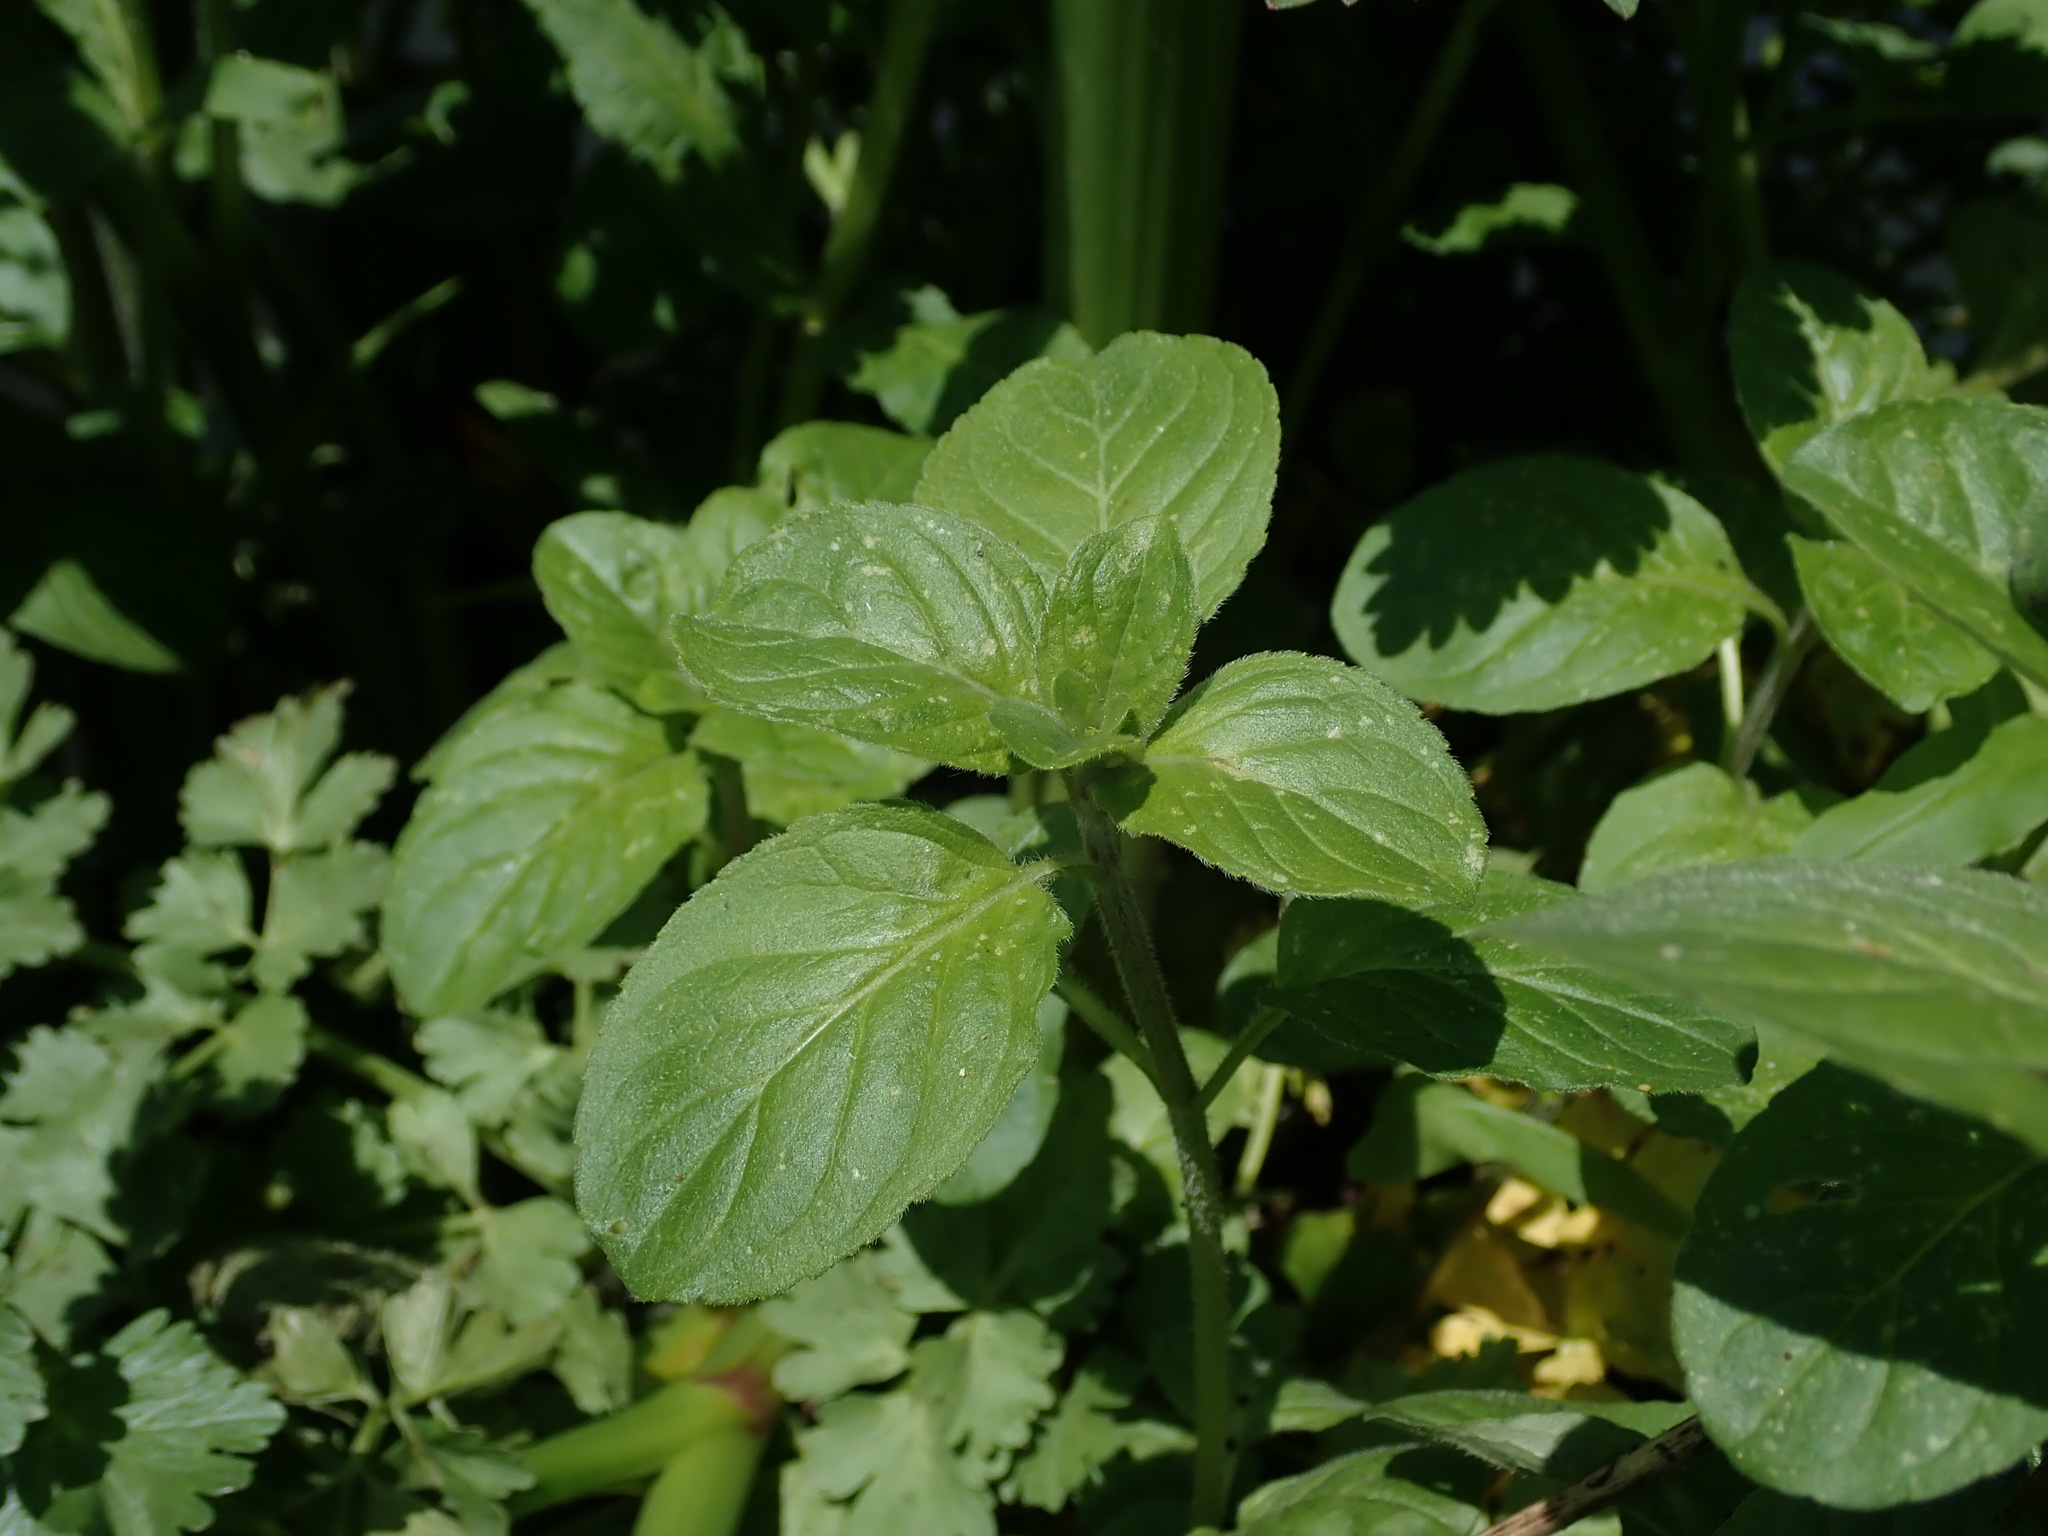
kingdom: Plantae
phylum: Tracheophyta
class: Magnoliopsida
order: Lamiales
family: Lamiaceae
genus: Mentha
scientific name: Mentha aquatica
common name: Water mint
